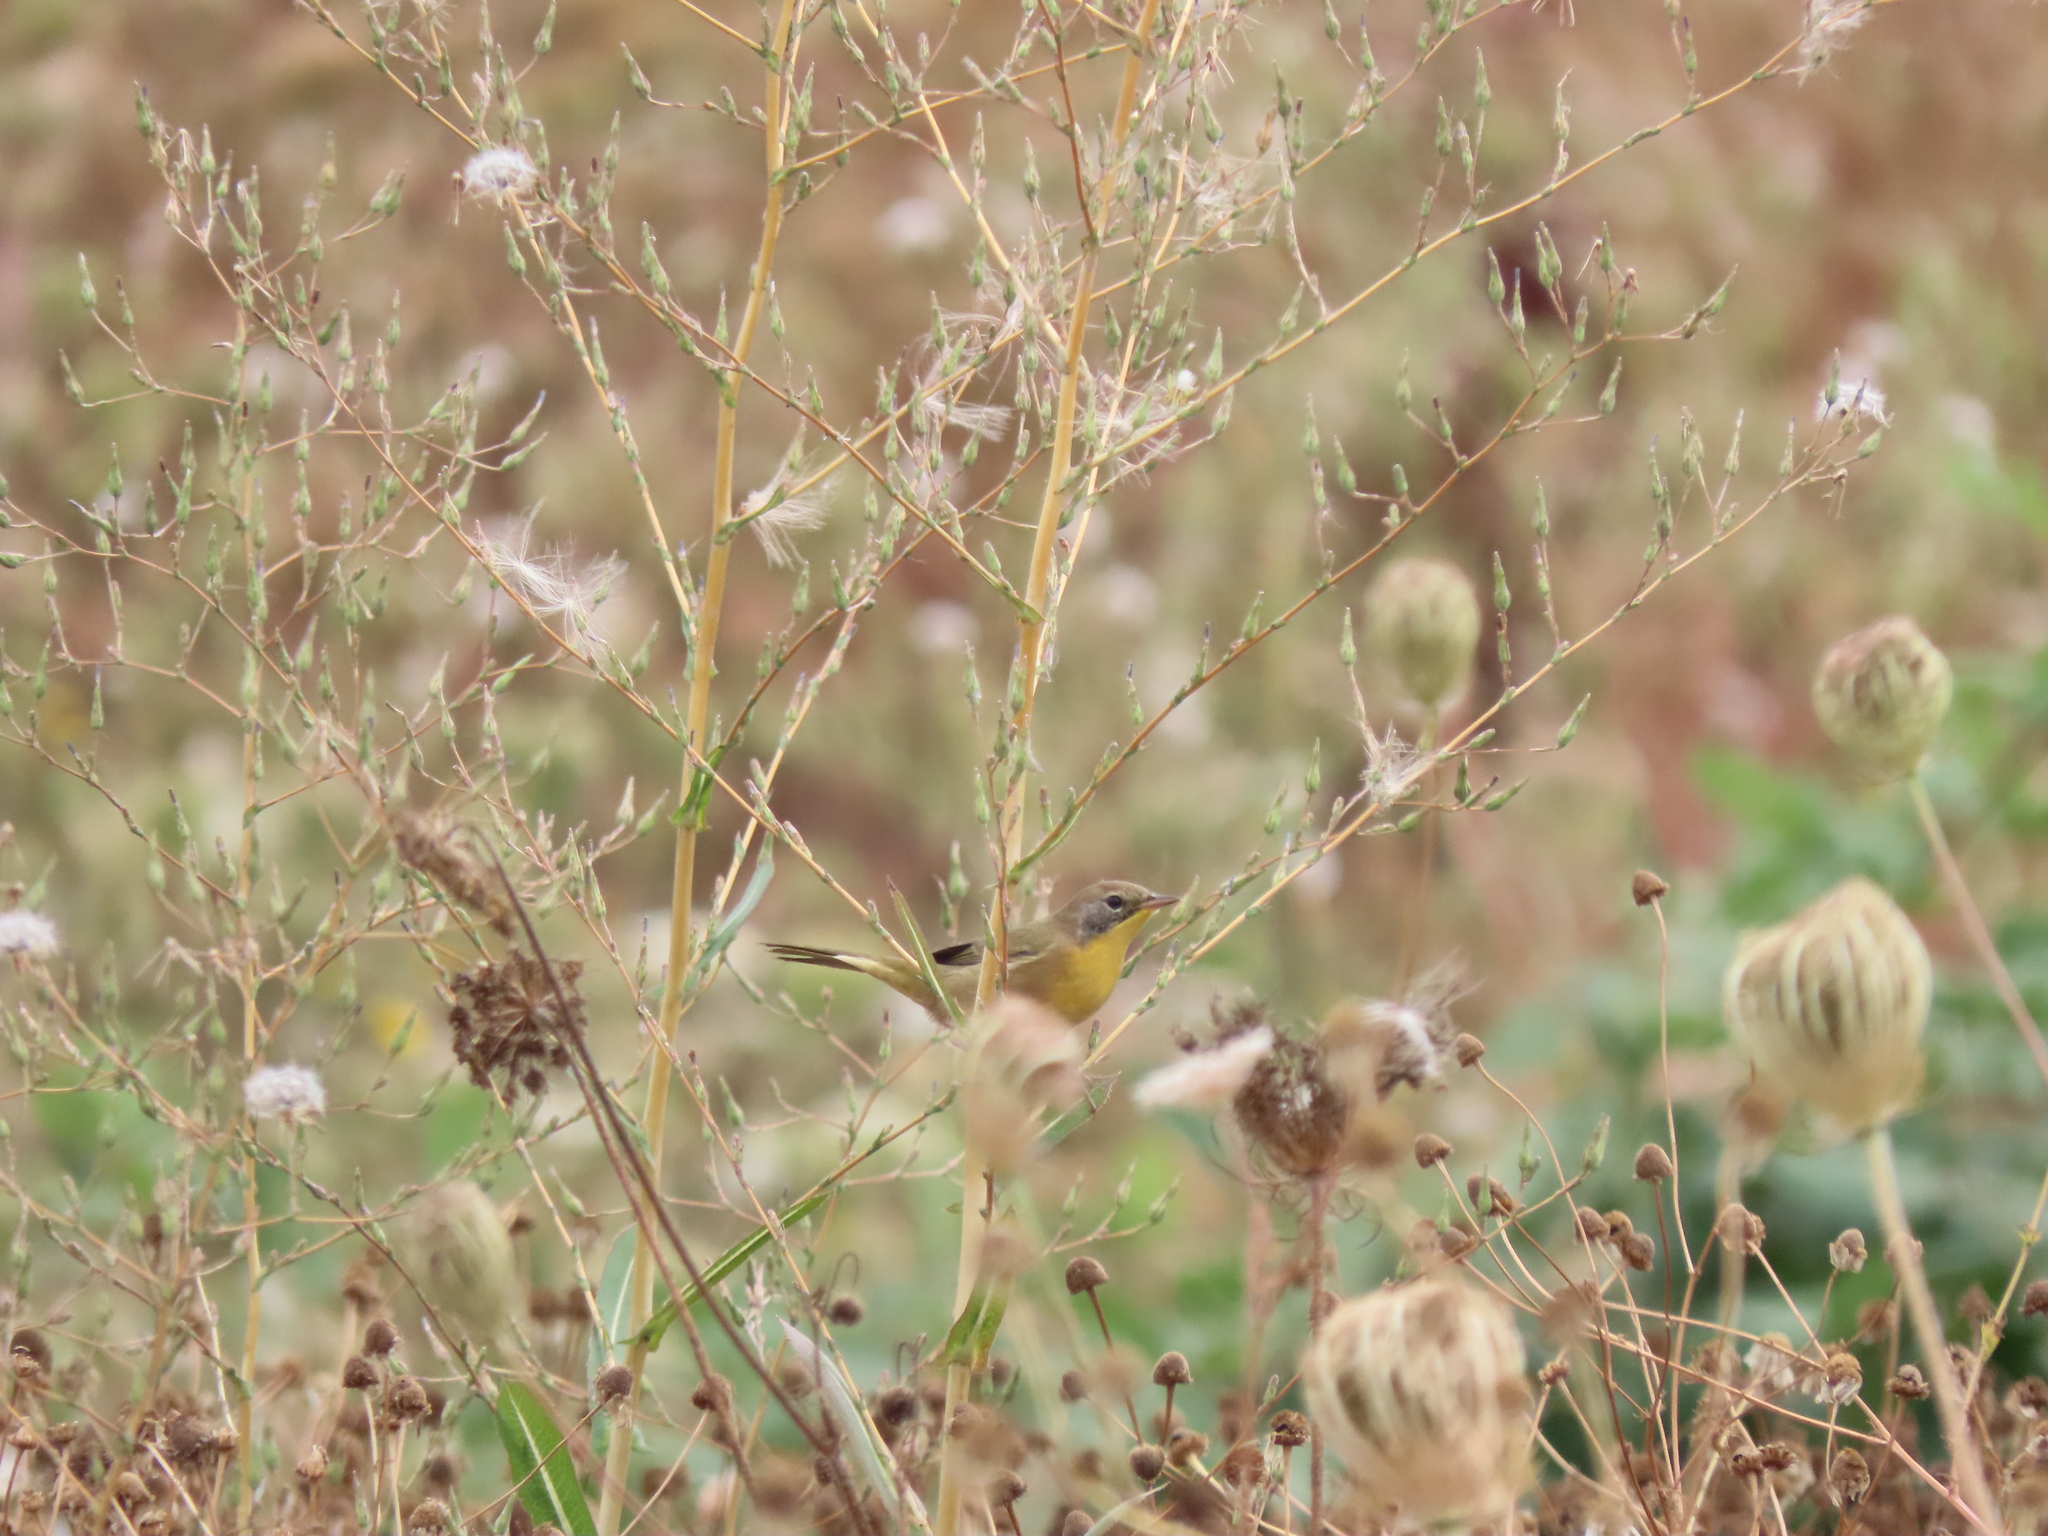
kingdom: Animalia
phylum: Chordata
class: Aves
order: Passeriformes
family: Parulidae
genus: Geothlypis
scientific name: Geothlypis trichas
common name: Common yellowthroat
